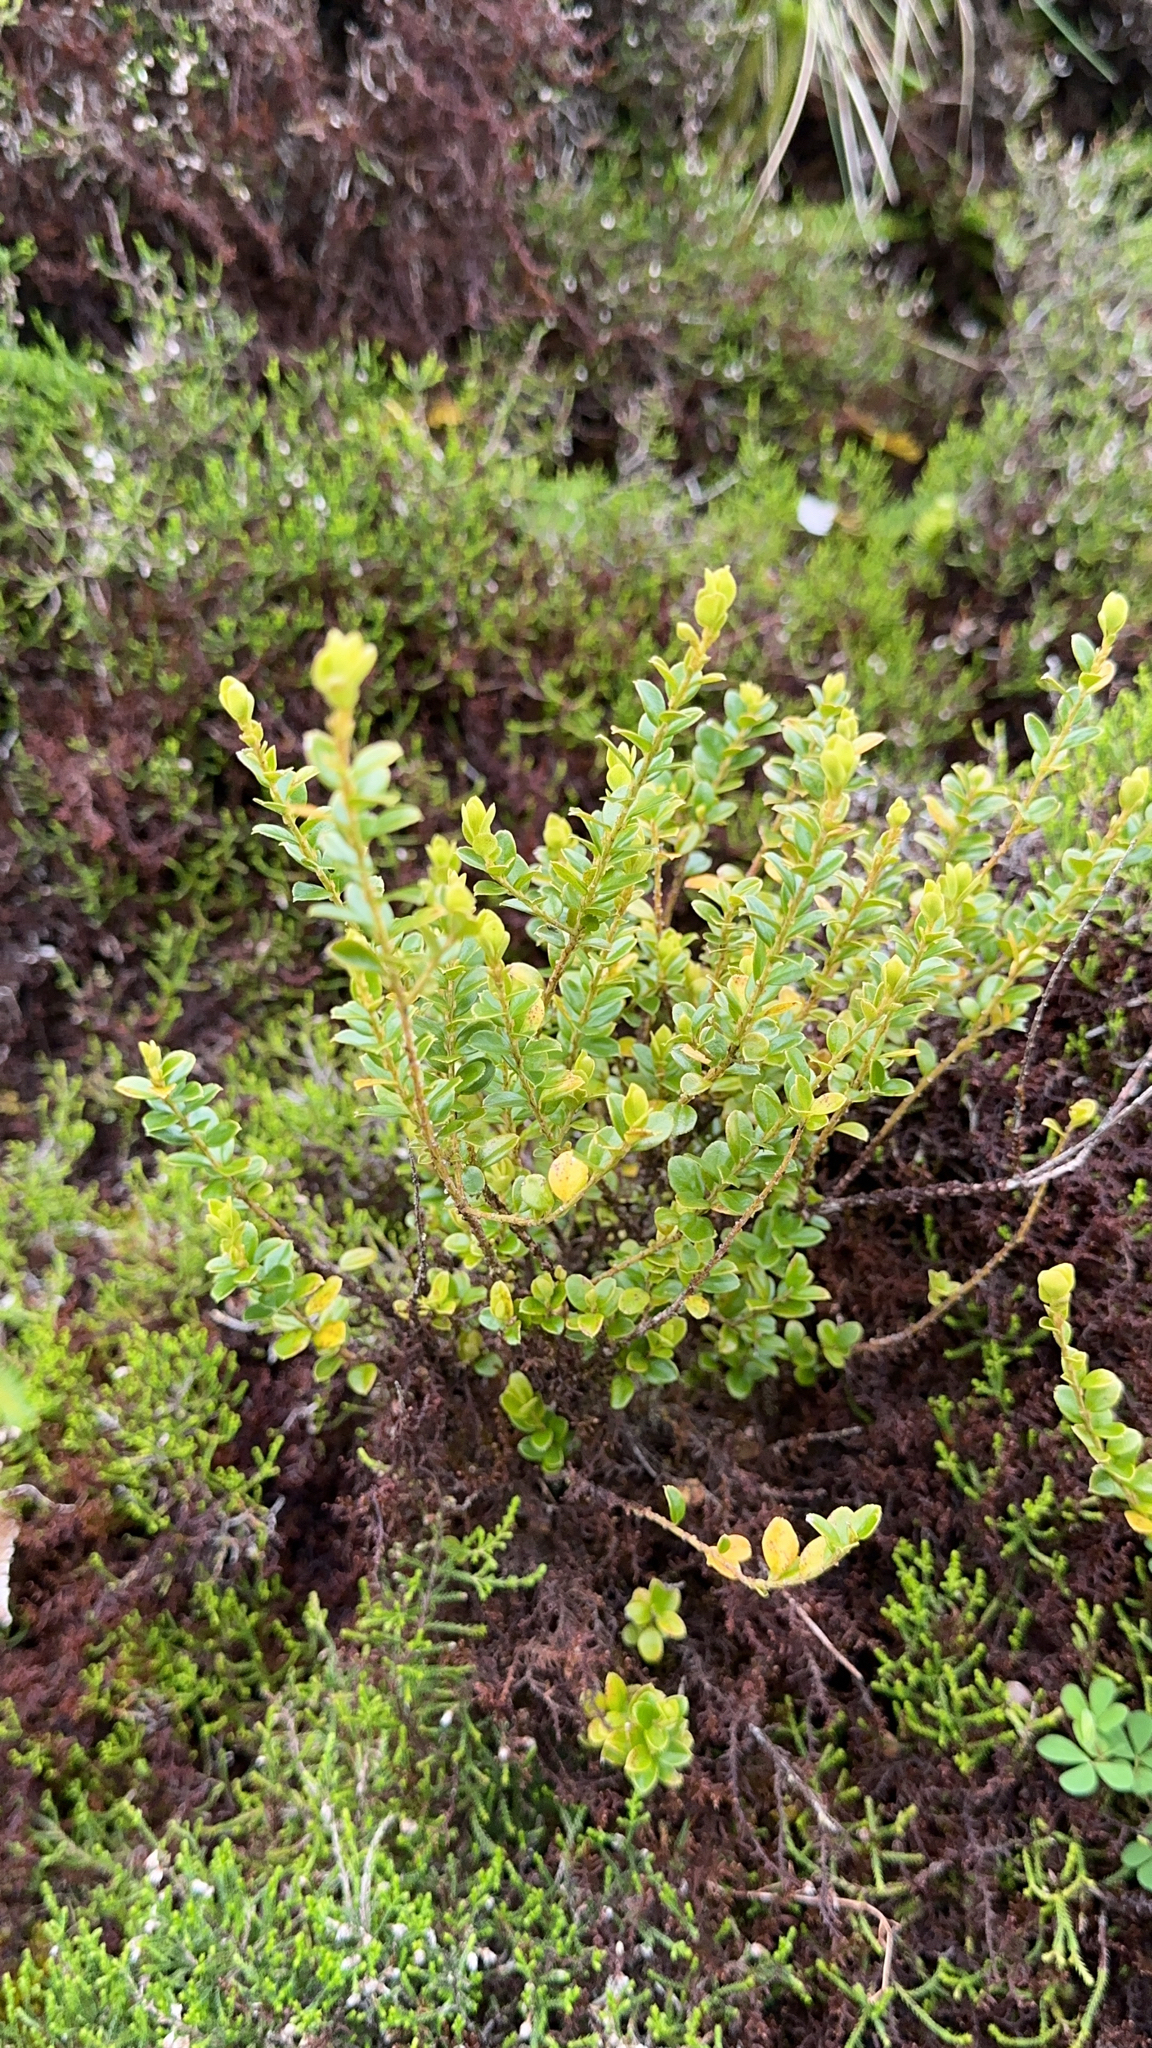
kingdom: Plantae
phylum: Tracheophyta
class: Magnoliopsida
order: Ericales
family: Primulaceae
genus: Myrsine
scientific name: Myrsine africana
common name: African-boxwood
